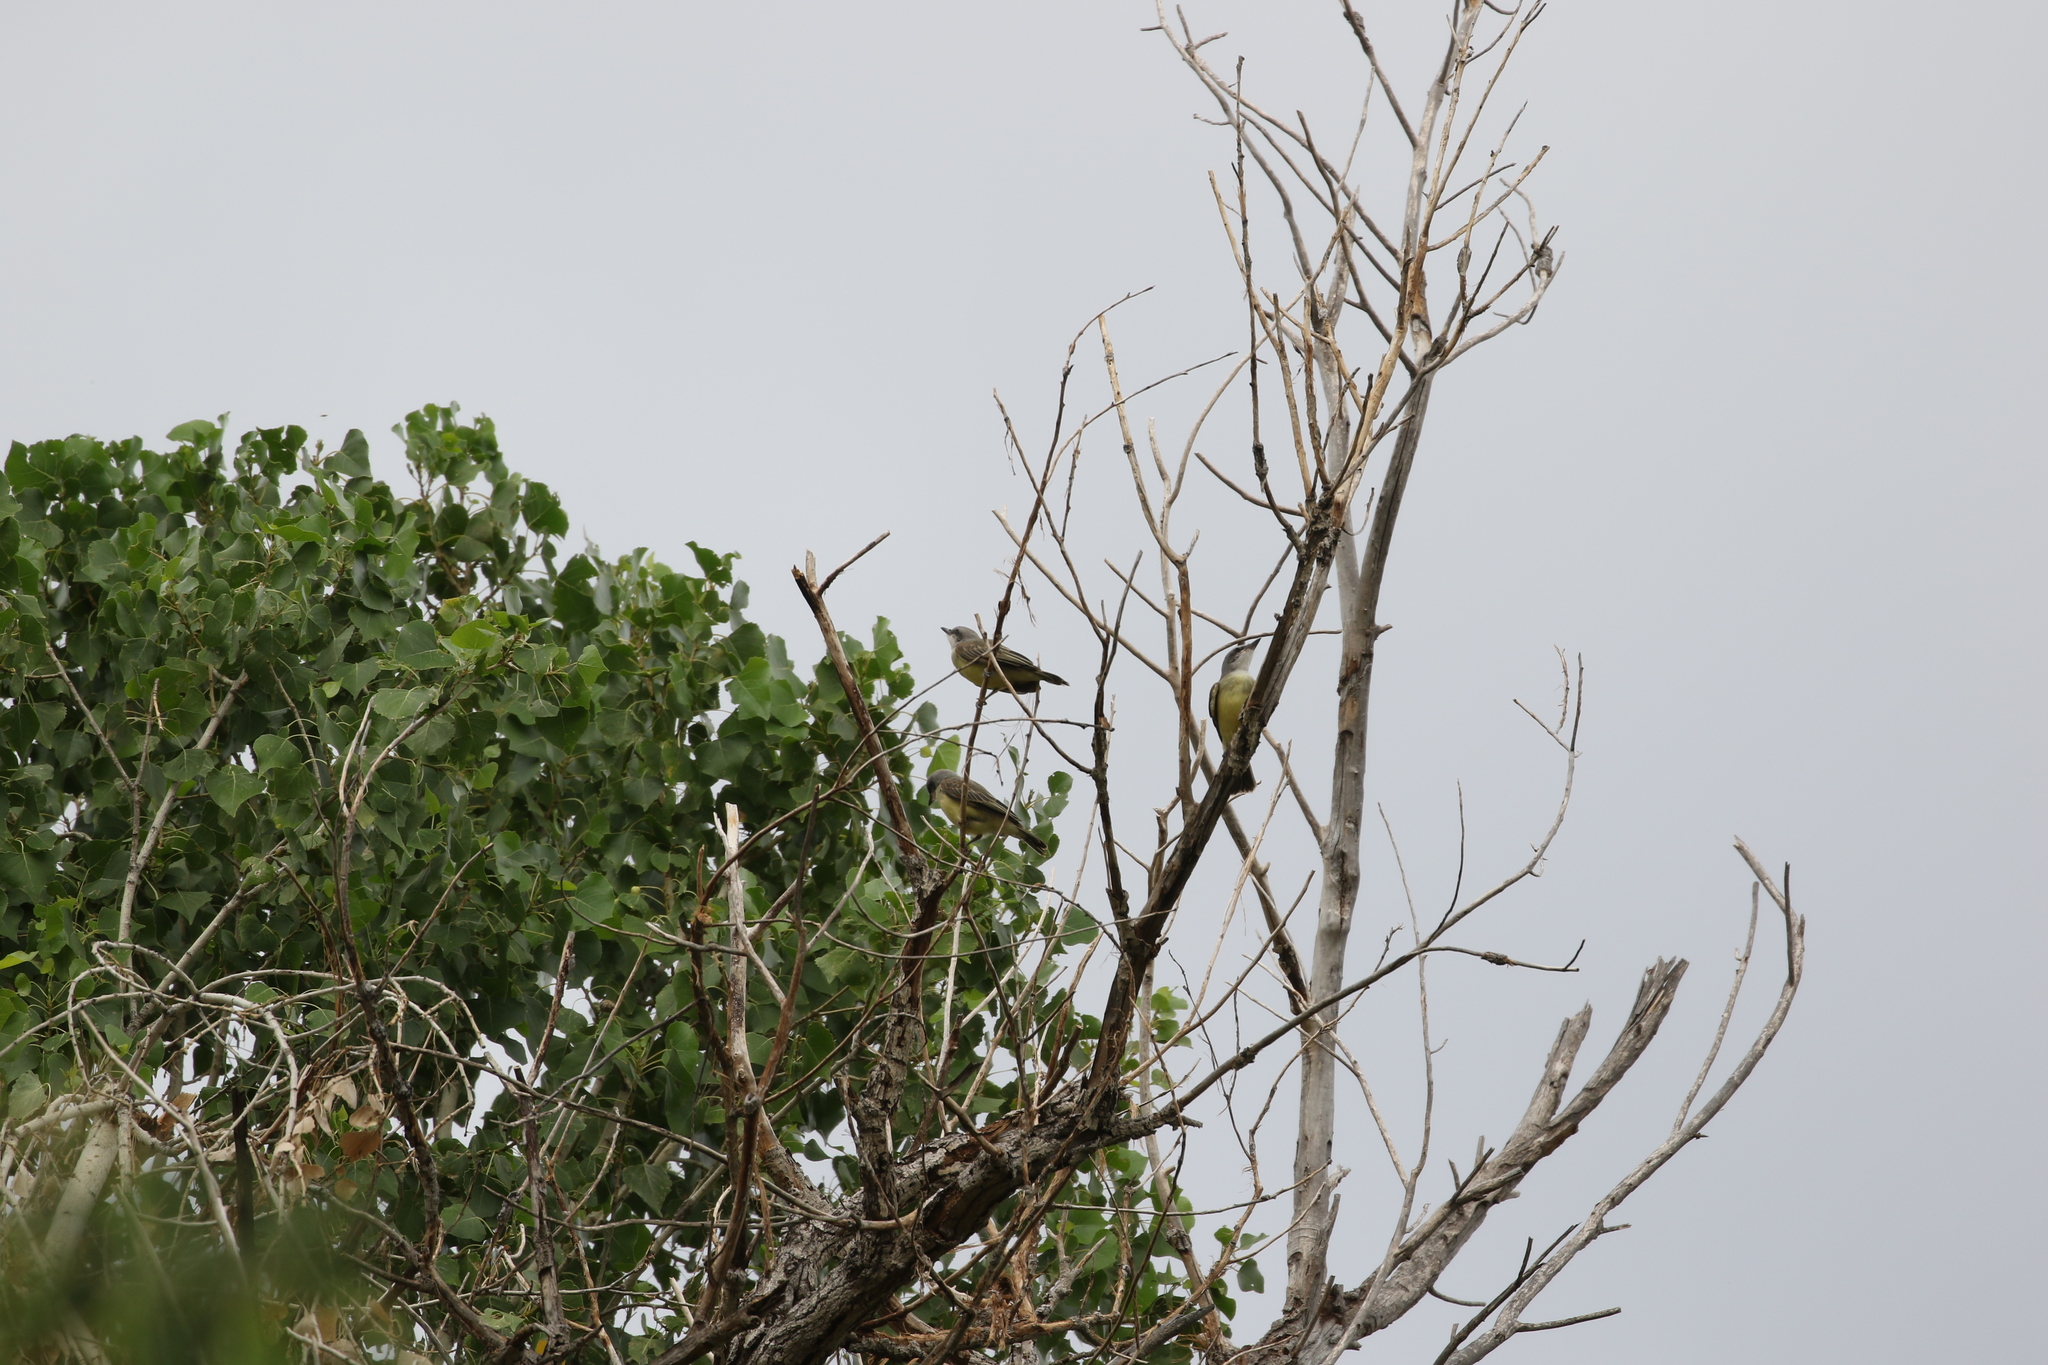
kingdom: Animalia
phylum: Chordata
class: Aves
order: Passeriformes
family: Tyrannidae
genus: Tyrannus
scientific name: Tyrannus verticalis
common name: Western kingbird
